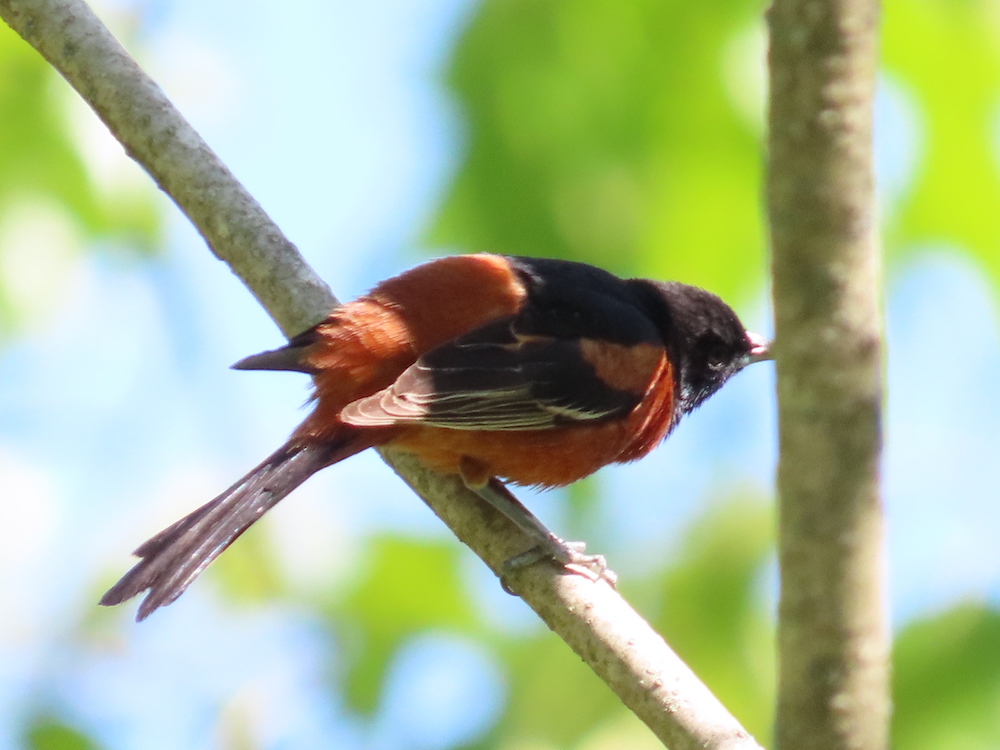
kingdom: Animalia
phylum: Chordata
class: Aves
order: Passeriformes
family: Icteridae
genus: Icterus
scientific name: Icterus spurius
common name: Orchard oriole
